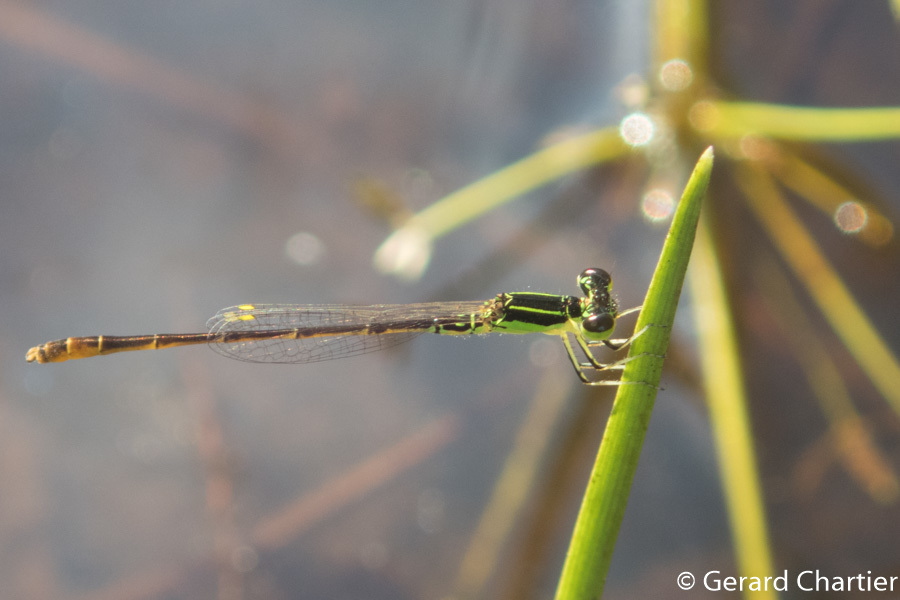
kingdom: Animalia
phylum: Arthropoda
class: Insecta
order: Odonata
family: Coenagrionidae
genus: Agriocnemis
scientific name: Agriocnemis minima
